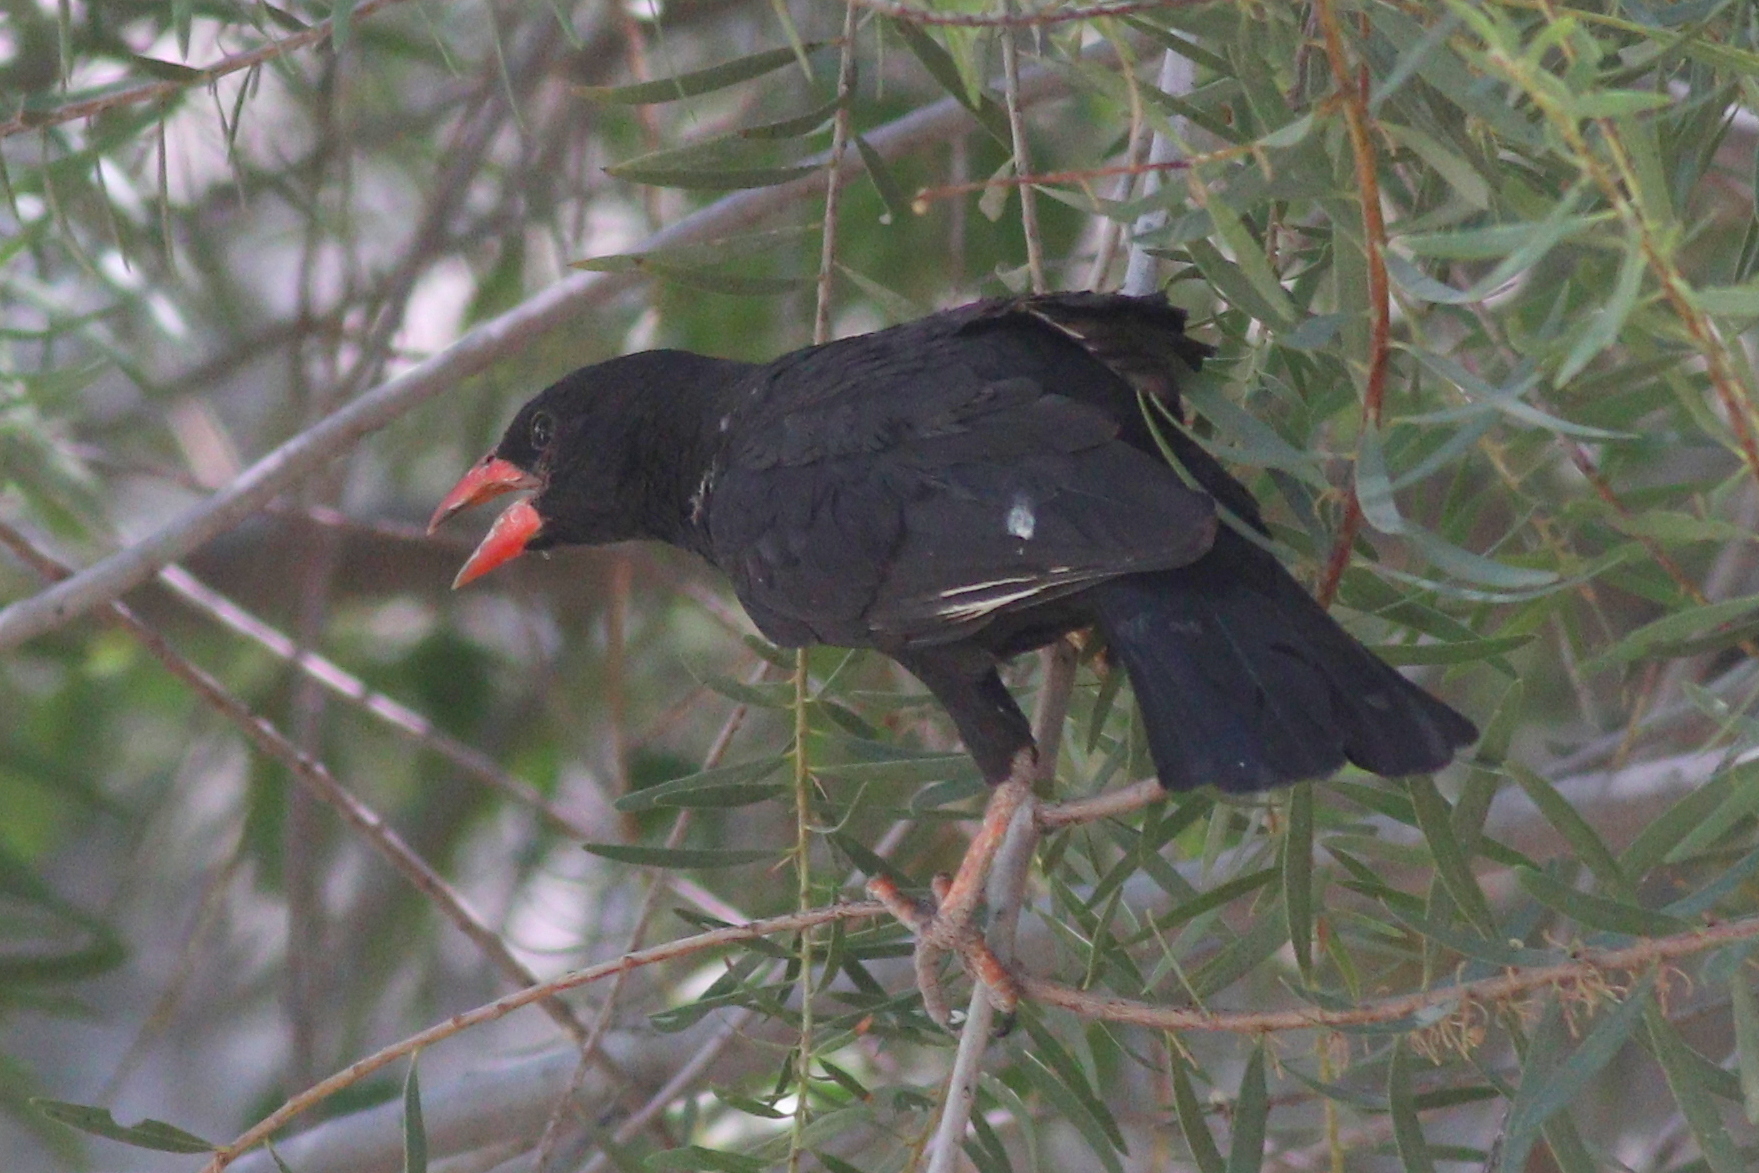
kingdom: Animalia
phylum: Chordata
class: Aves
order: Passeriformes
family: Ploceidae
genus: Bubalornis
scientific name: Bubalornis niger
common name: Red-billed buffalo weaver
